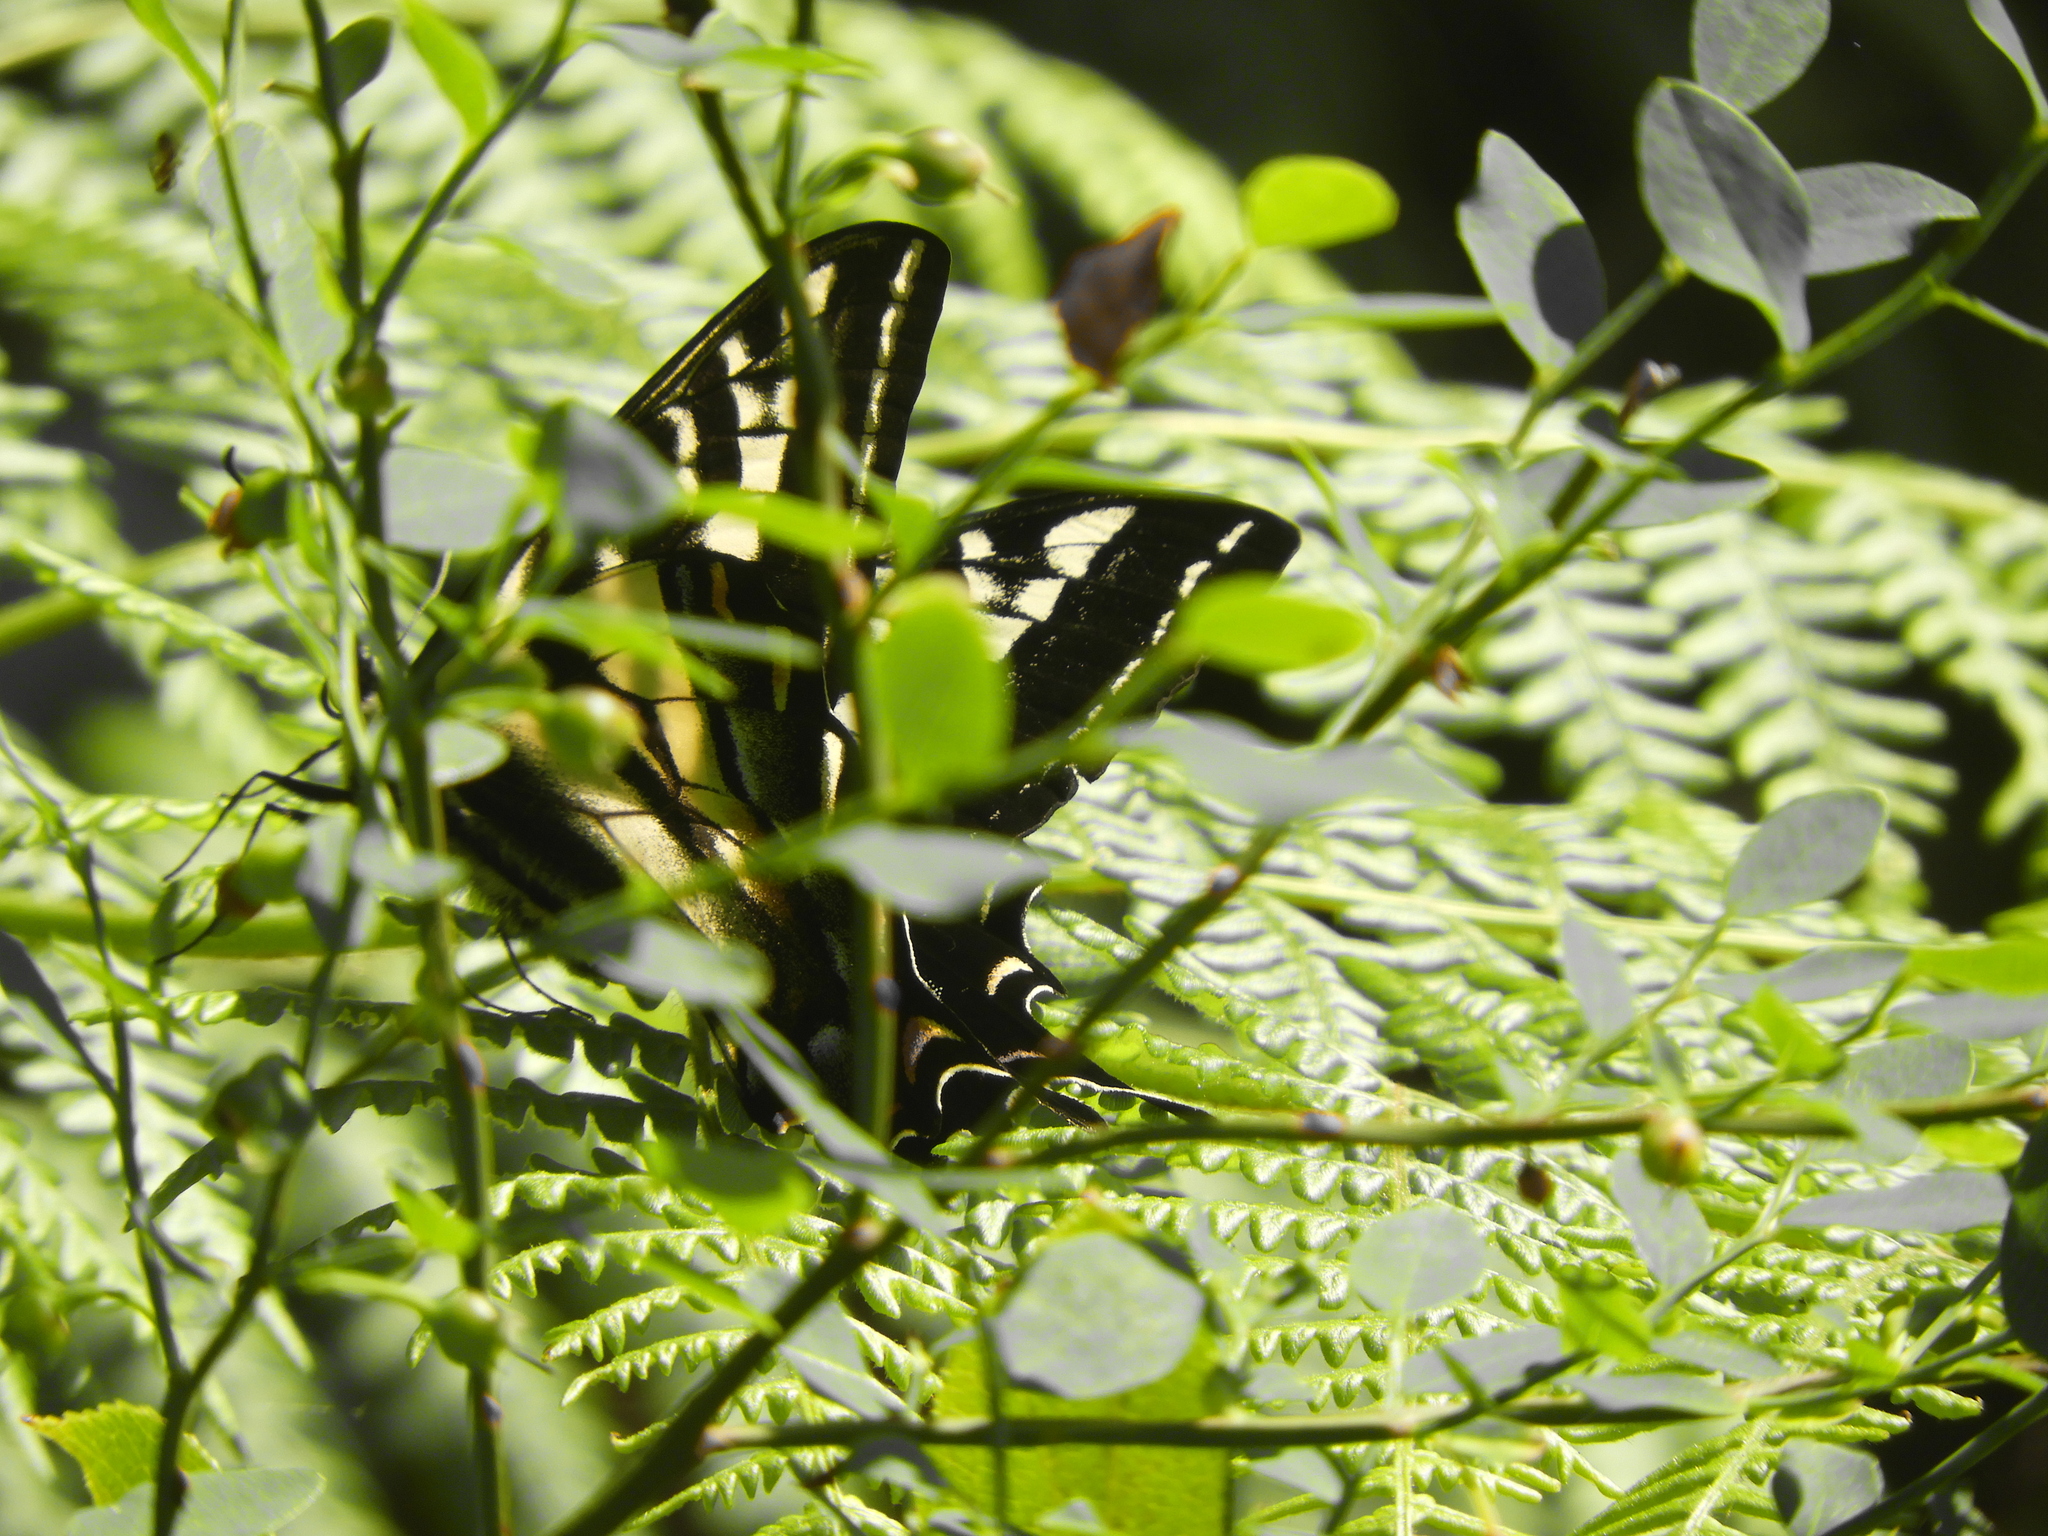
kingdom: Animalia
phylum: Arthropoda
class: Insecta
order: Lepidoptera
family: Papilionidae
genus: Papilio
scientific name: Papilio eurymedon
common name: Pale tiger swallowtail
